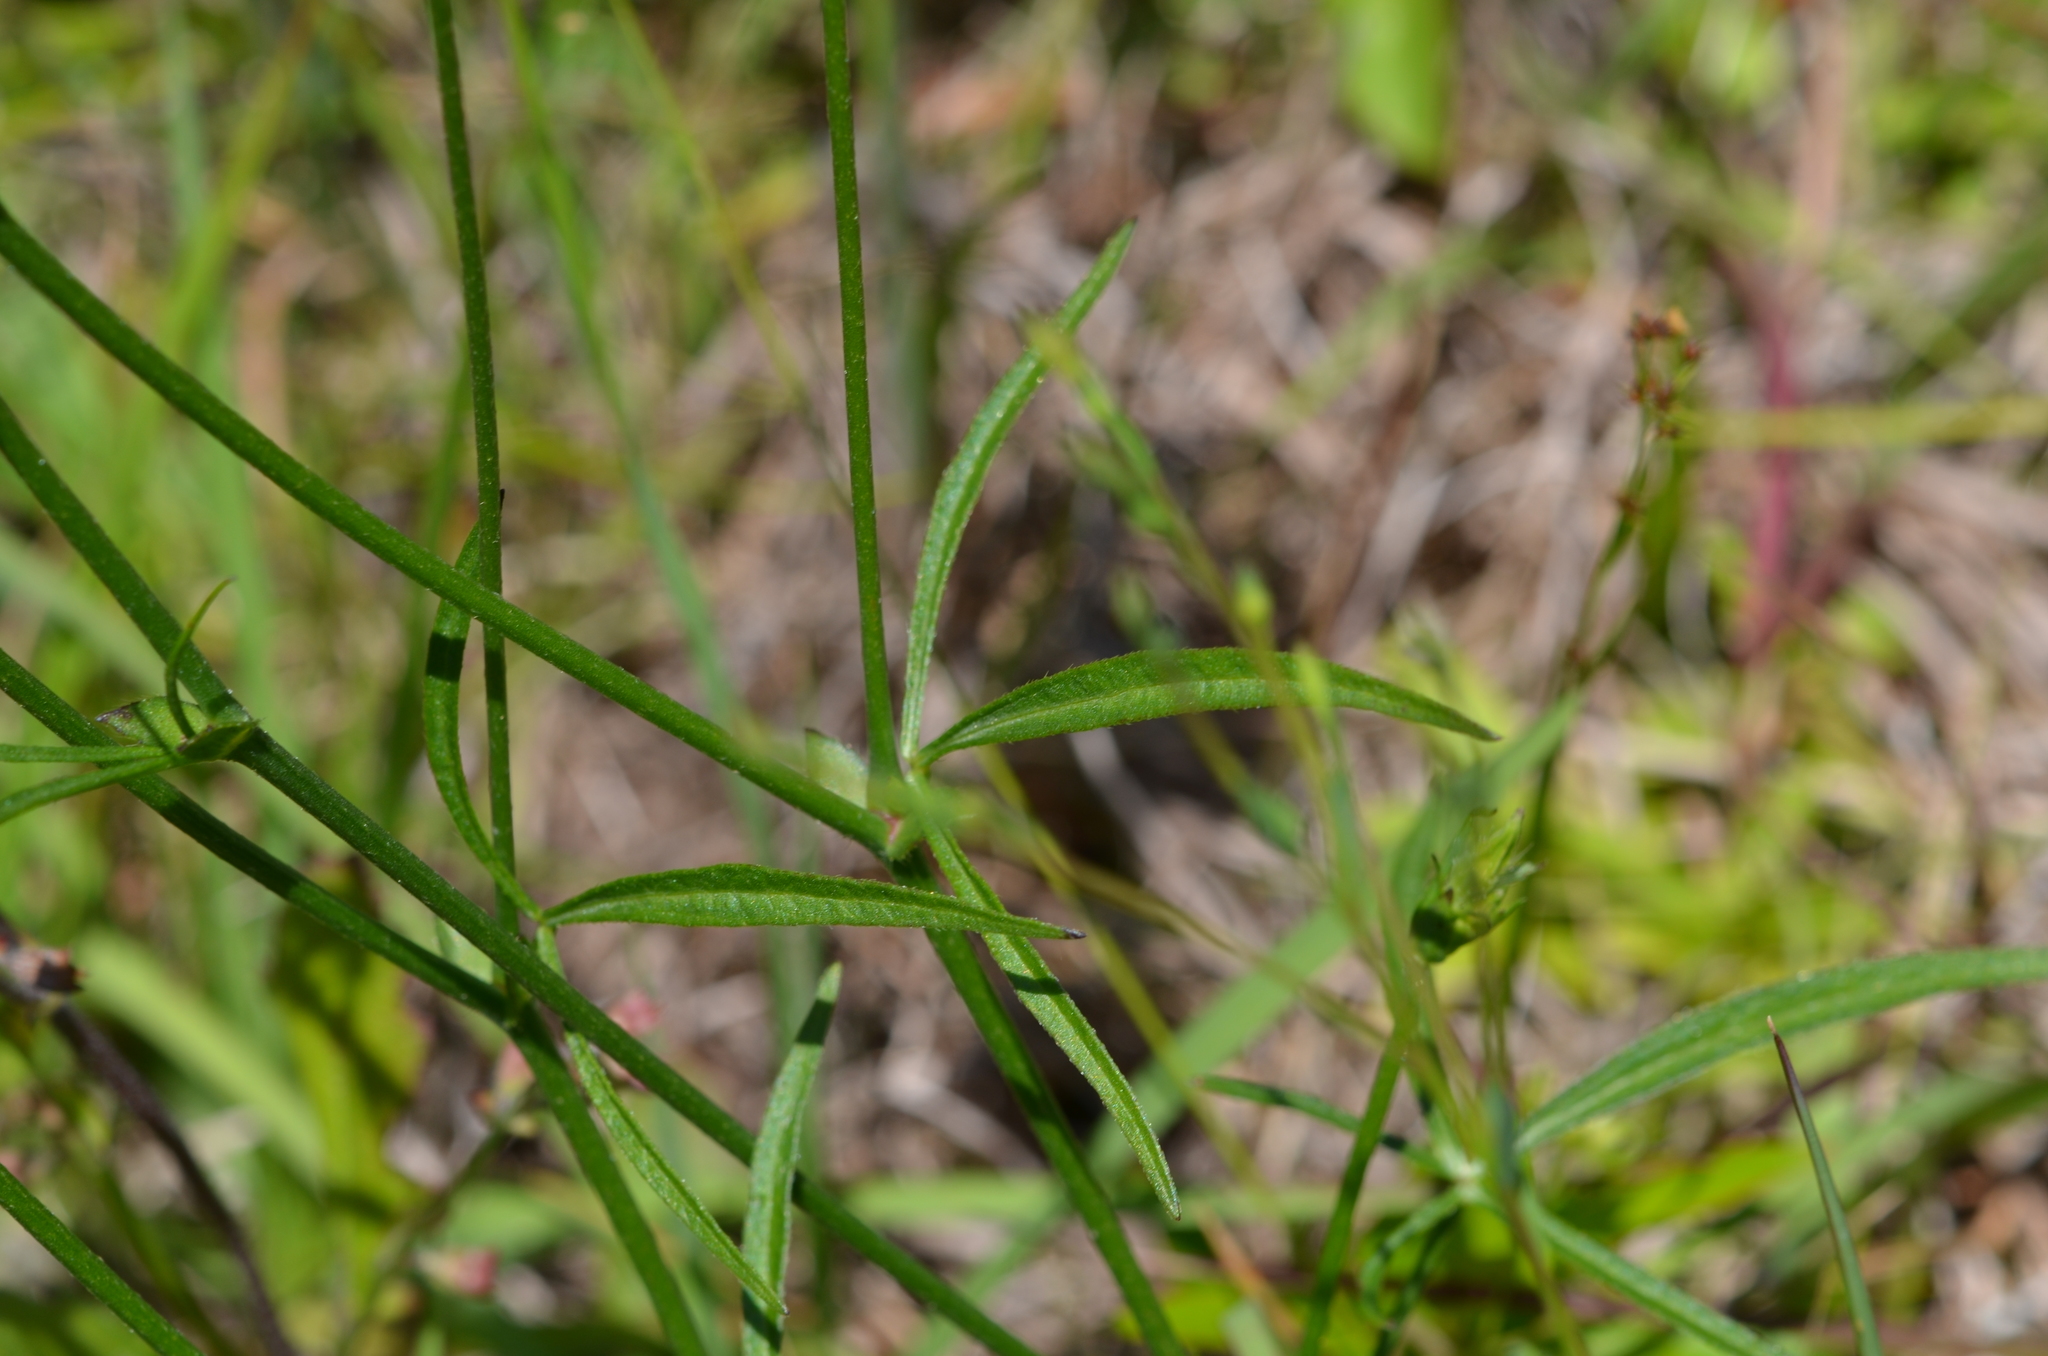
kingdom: Plantae
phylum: Tracheophyta
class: Magnoliopsida
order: Malvales
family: Malvaceae
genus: Callirhoe
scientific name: Callirhoe papaver
